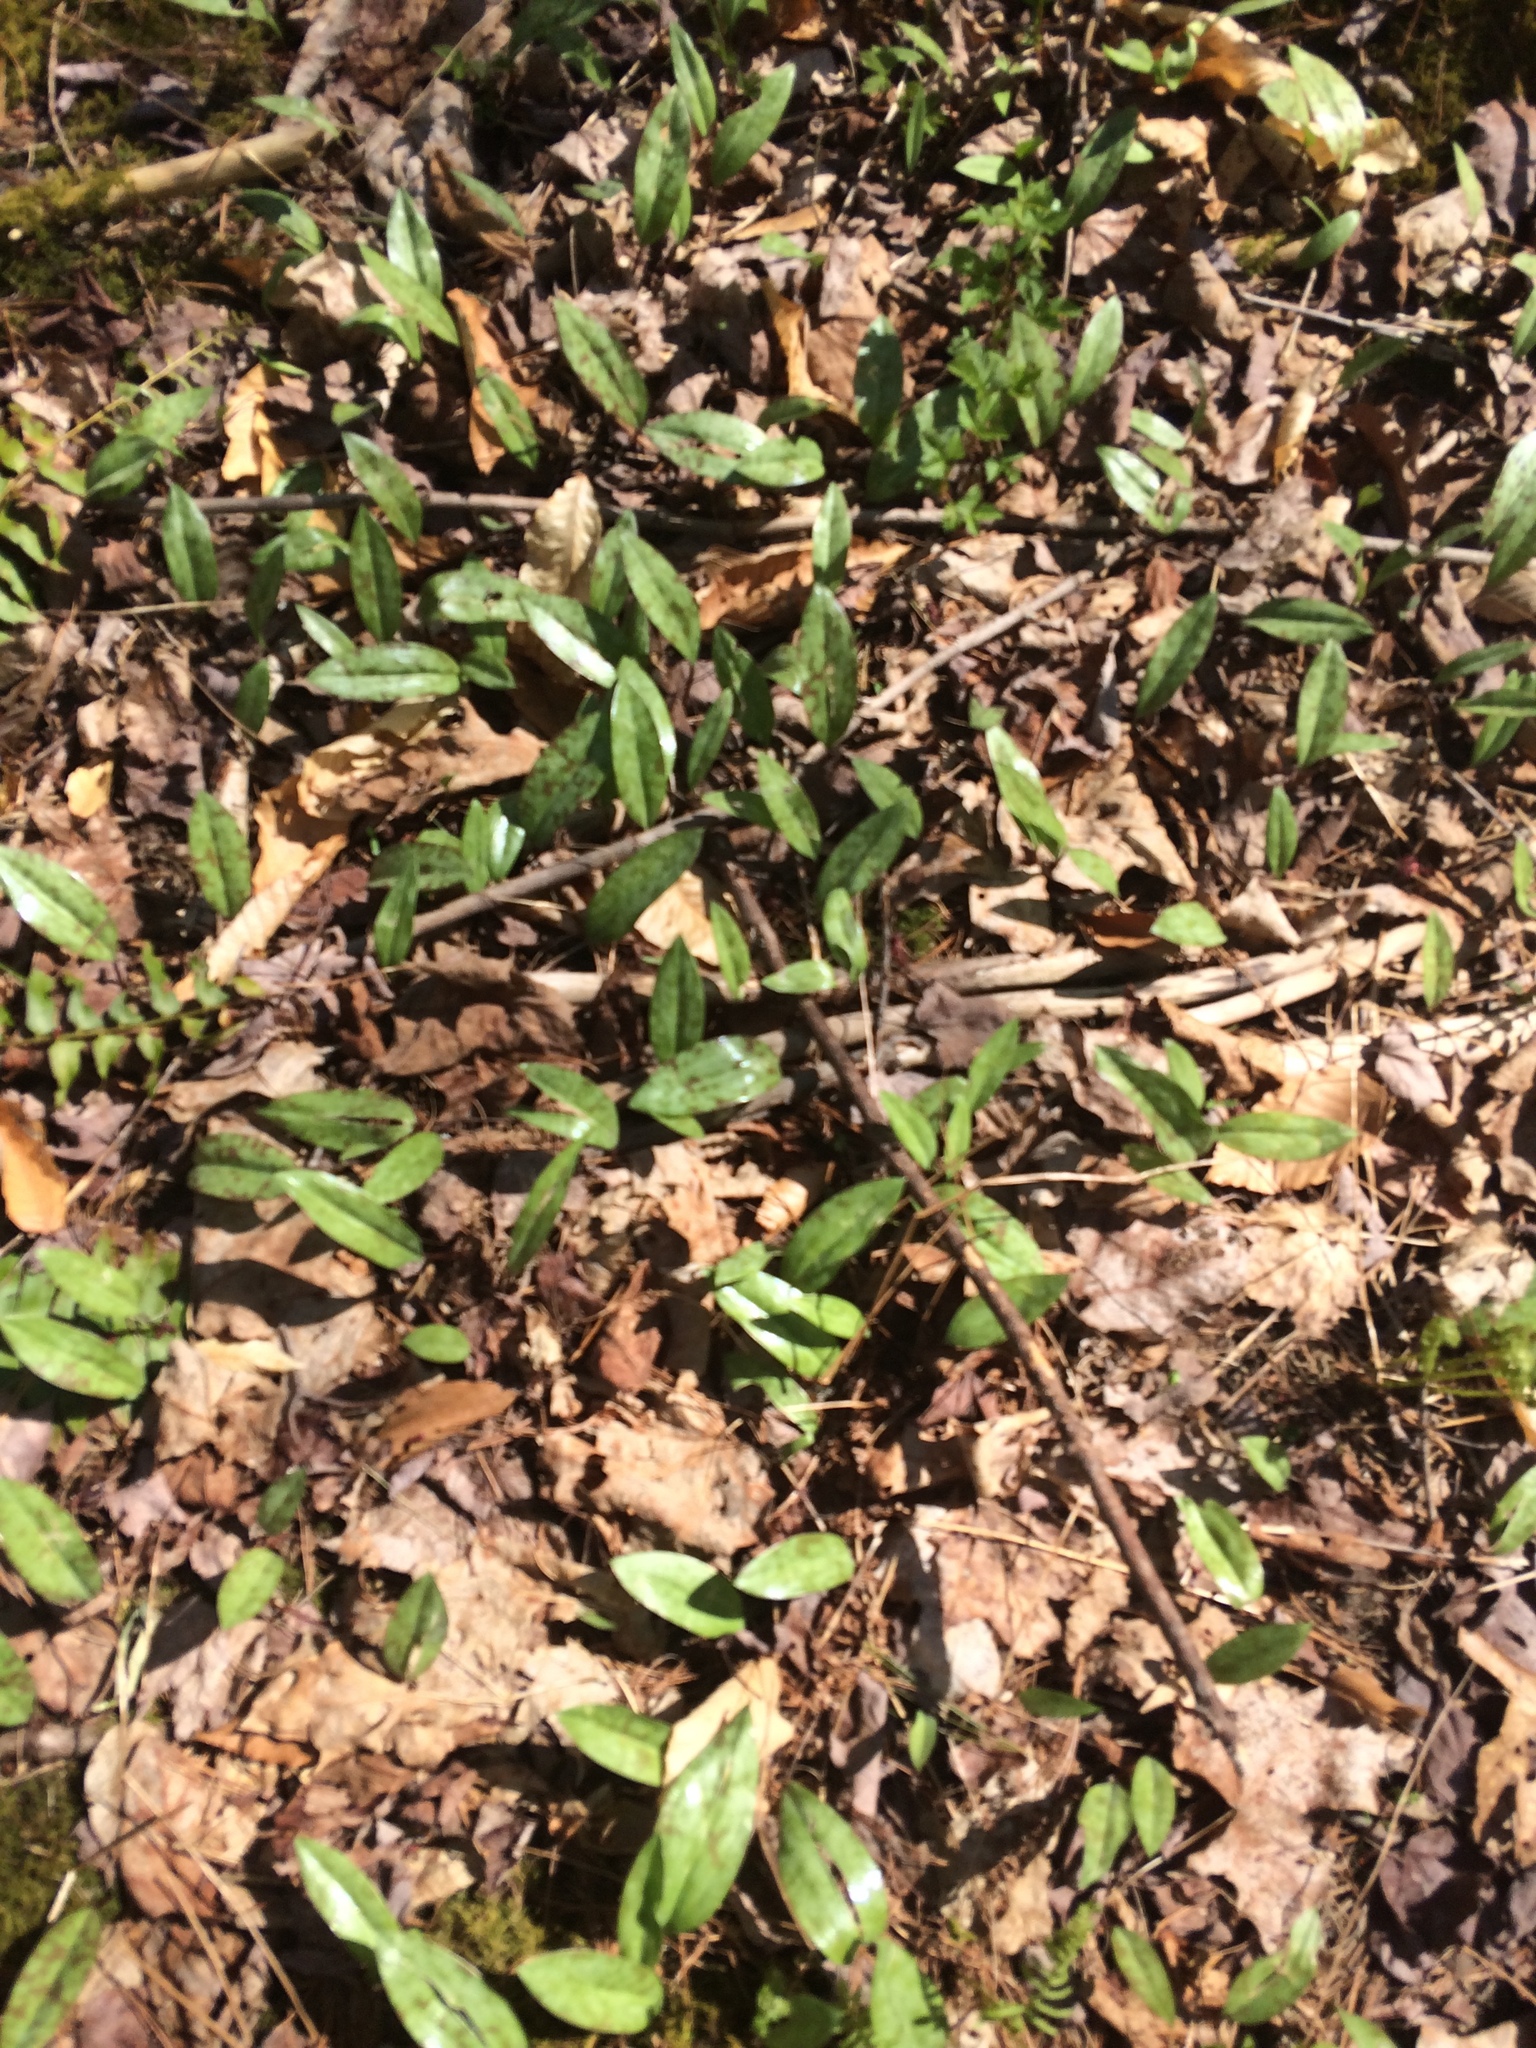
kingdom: Plantae
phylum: Tracheophyta
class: Liliopsida
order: Liliales
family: Liliaceae
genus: Erythronium
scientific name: Erythronium americanum
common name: Yellow adder's-tongue
